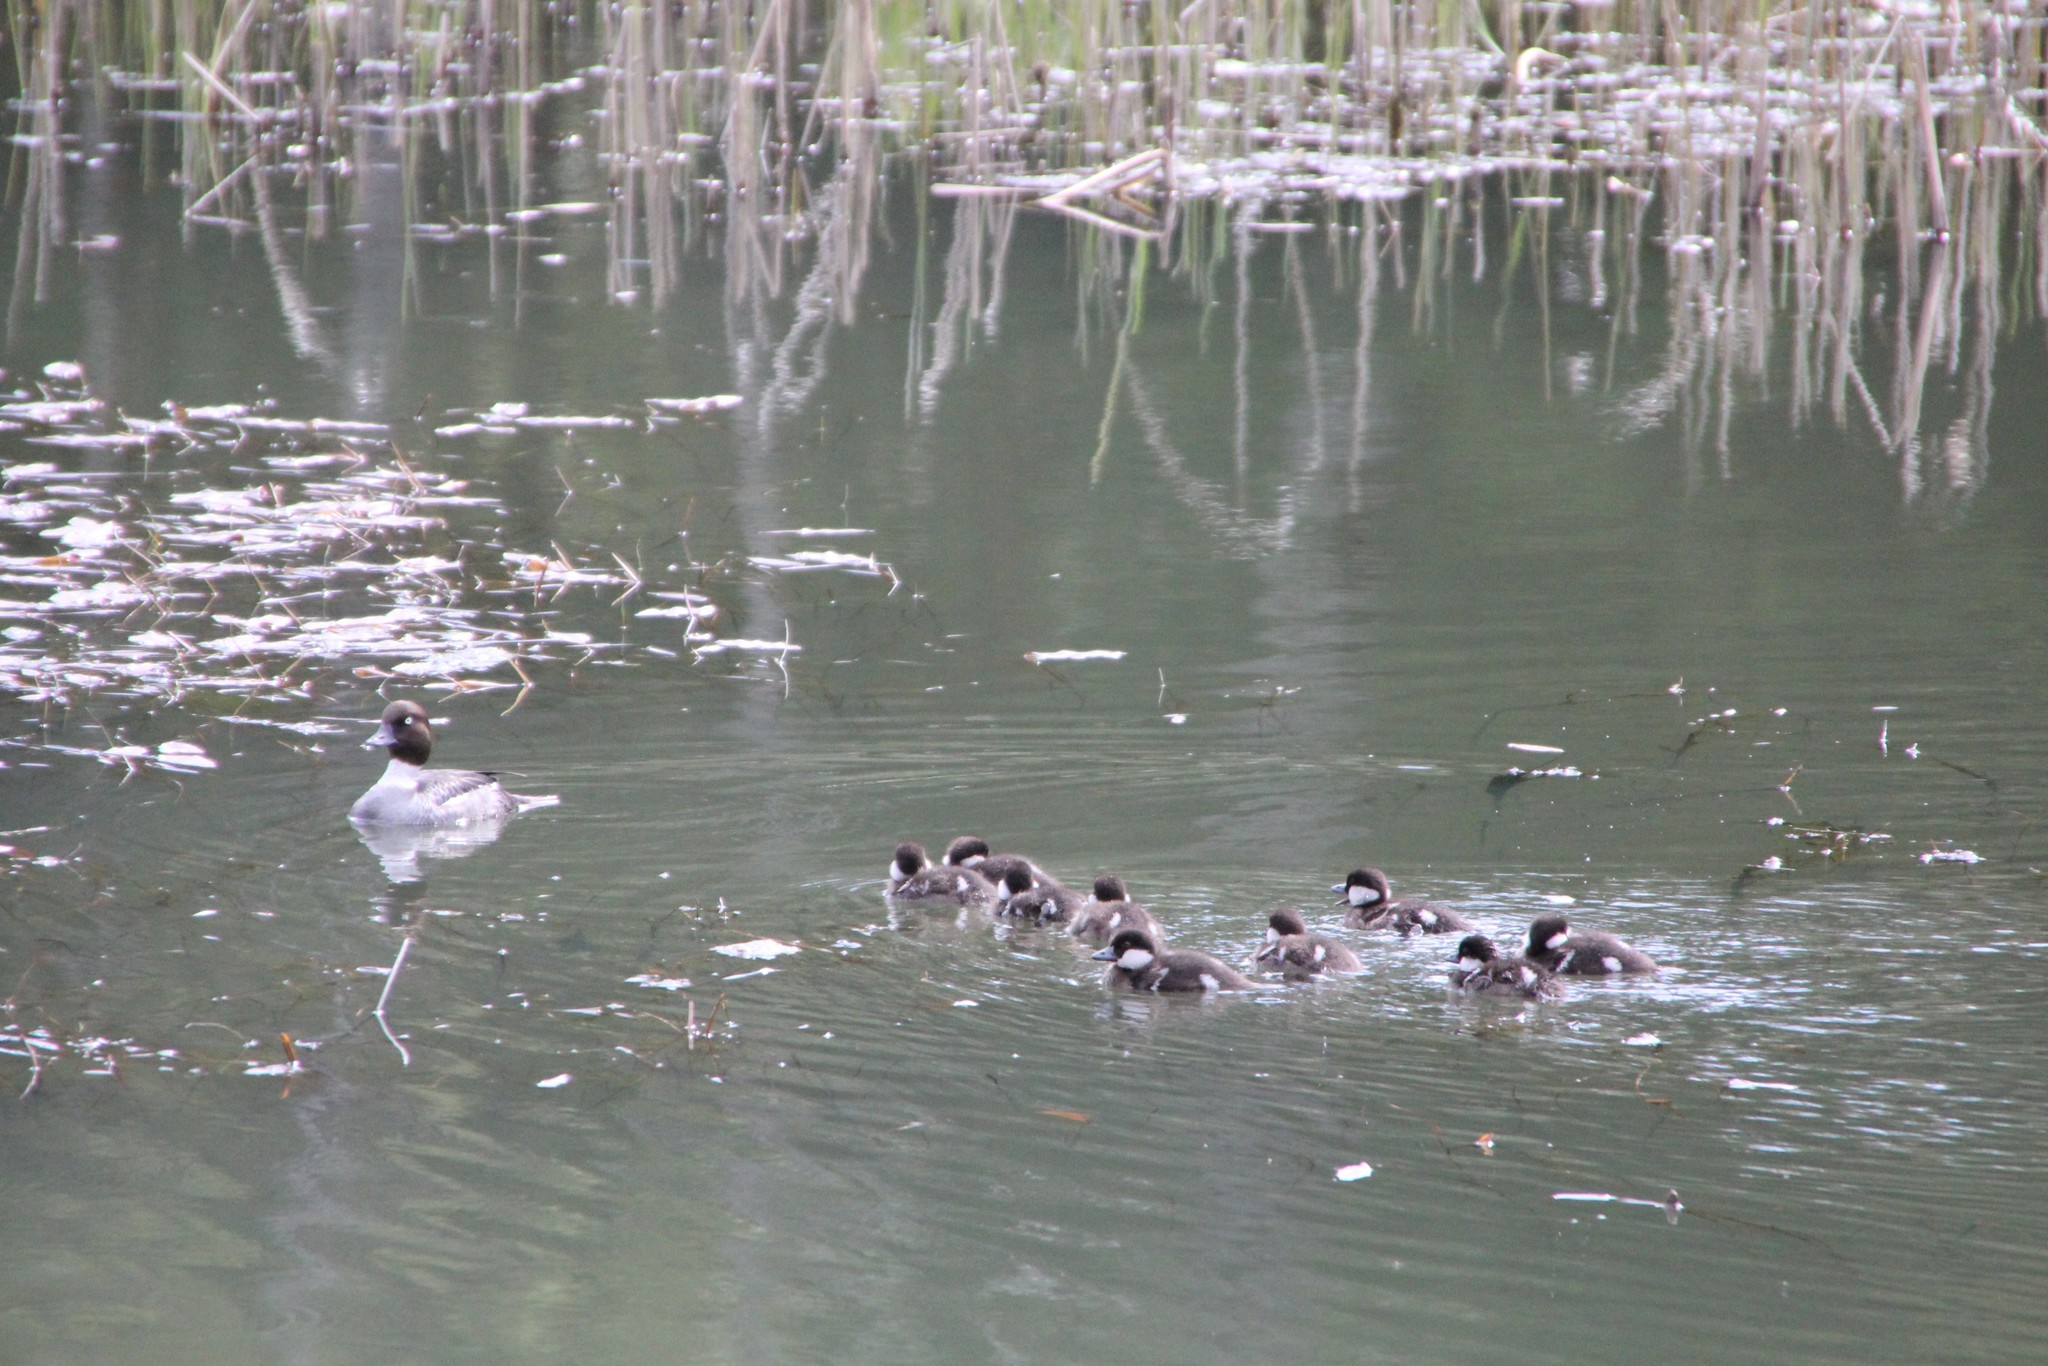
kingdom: Animalia
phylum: Chordata
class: Aves
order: Anseriformes
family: Anatidae
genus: Bucephala
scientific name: Bucephala clangula
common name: Common goldeneye
